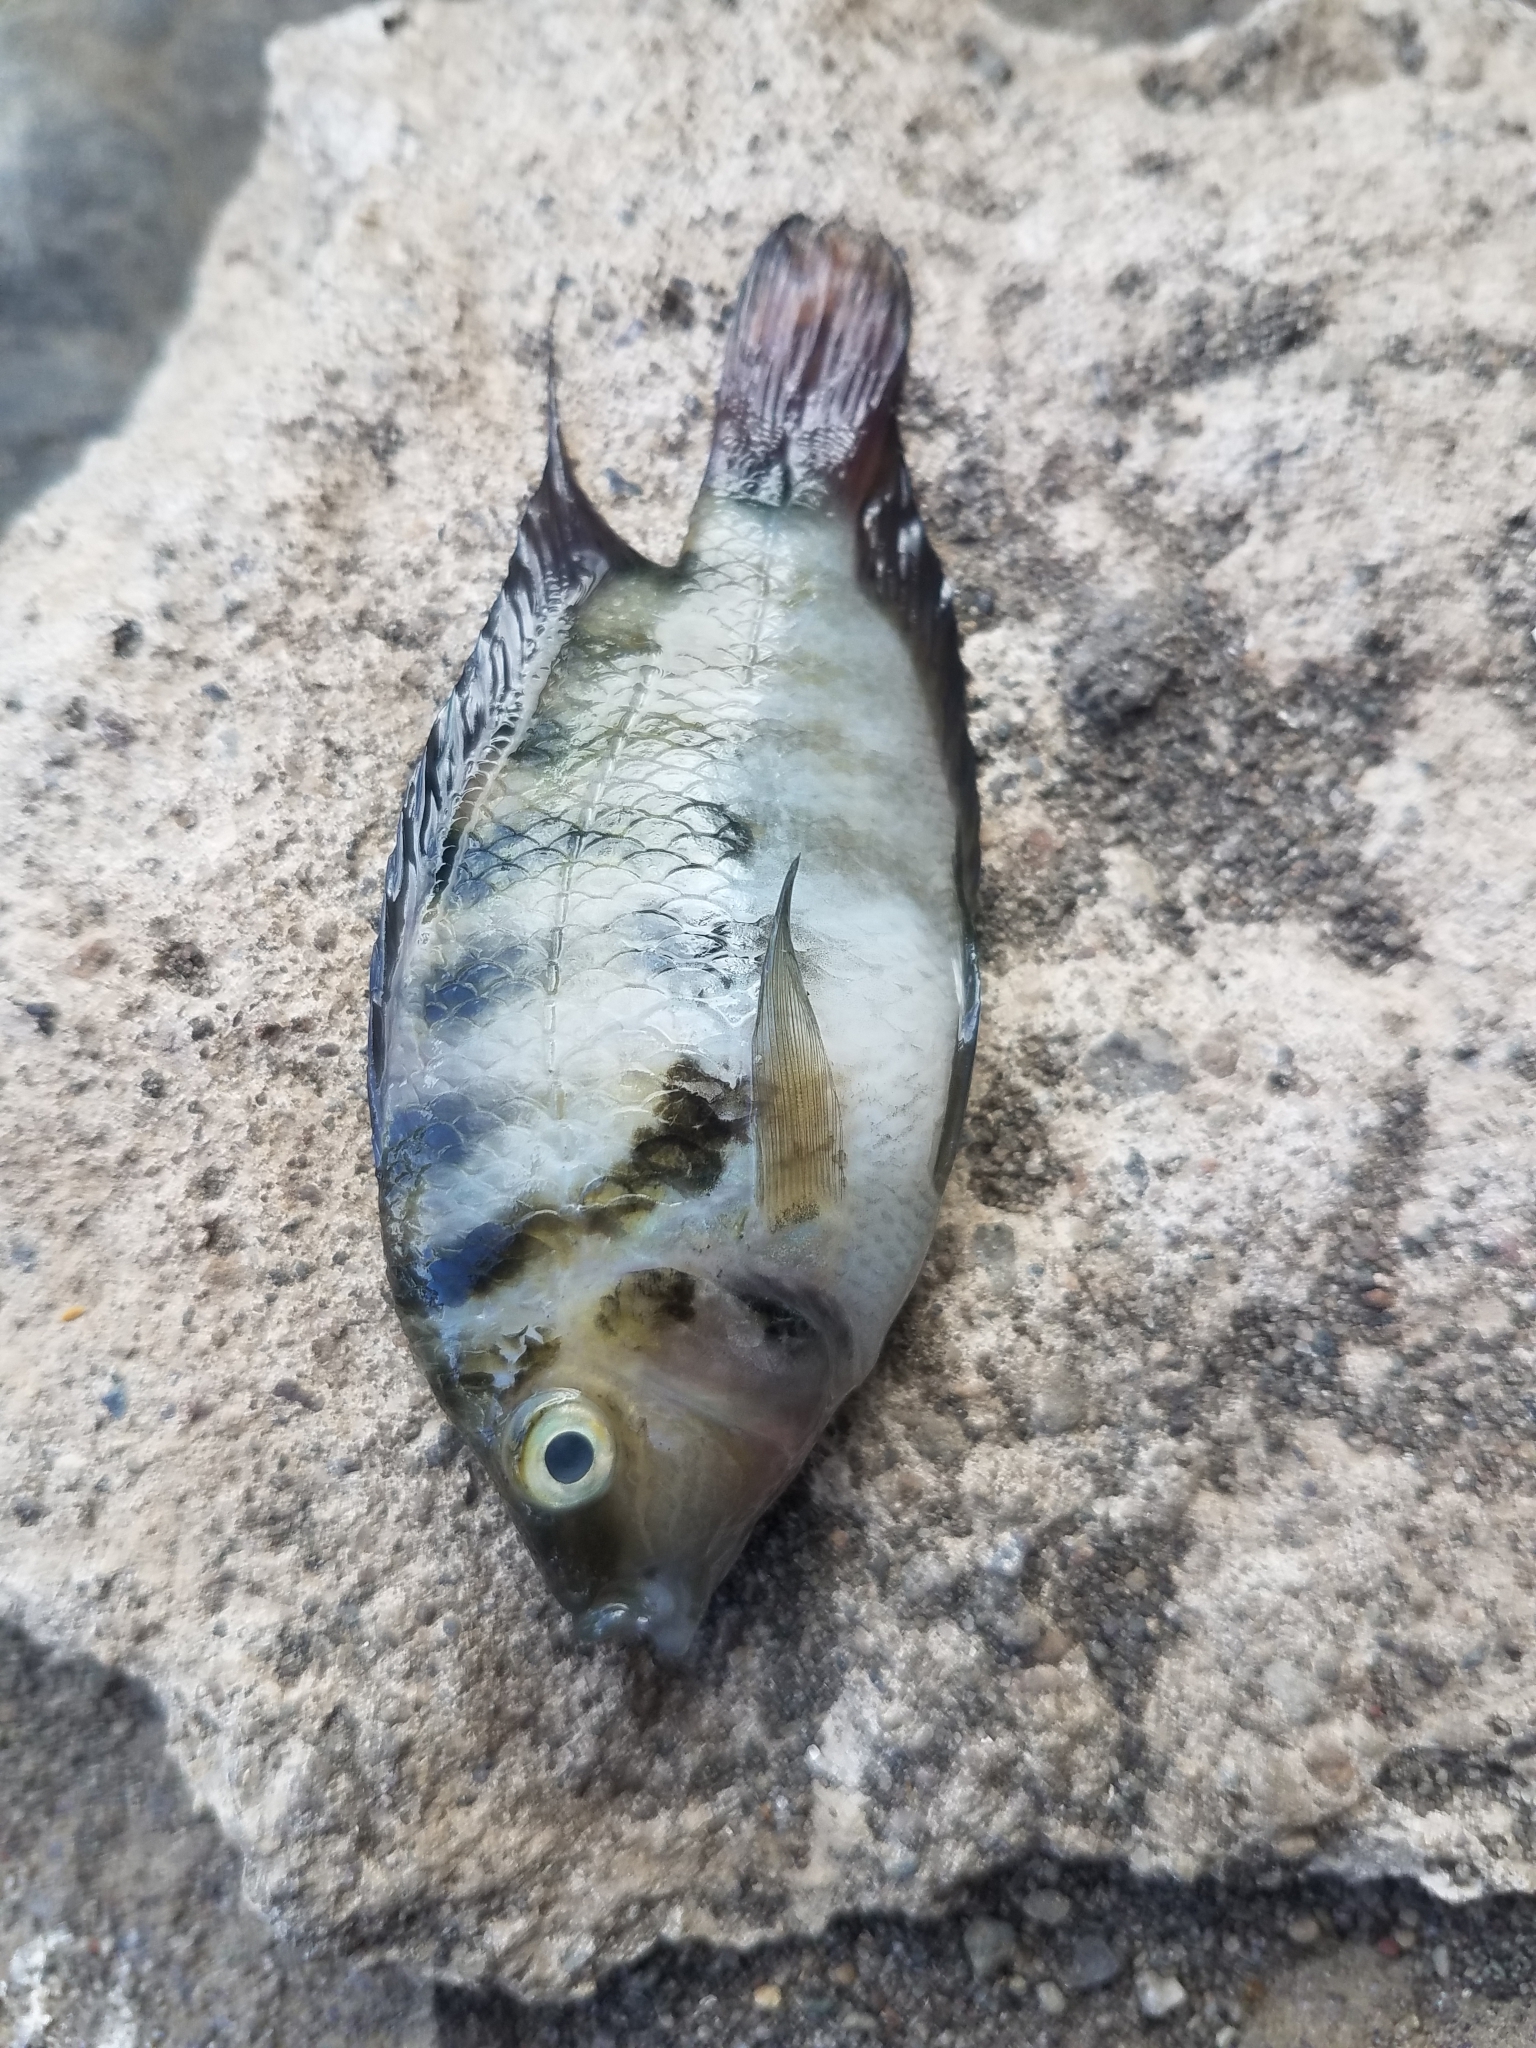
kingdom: Animalia
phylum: Chordata
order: Perciformes
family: Cichlidae
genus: Amatitlania
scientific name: Amatitlania nigrofasciata
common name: Convict cichlid
